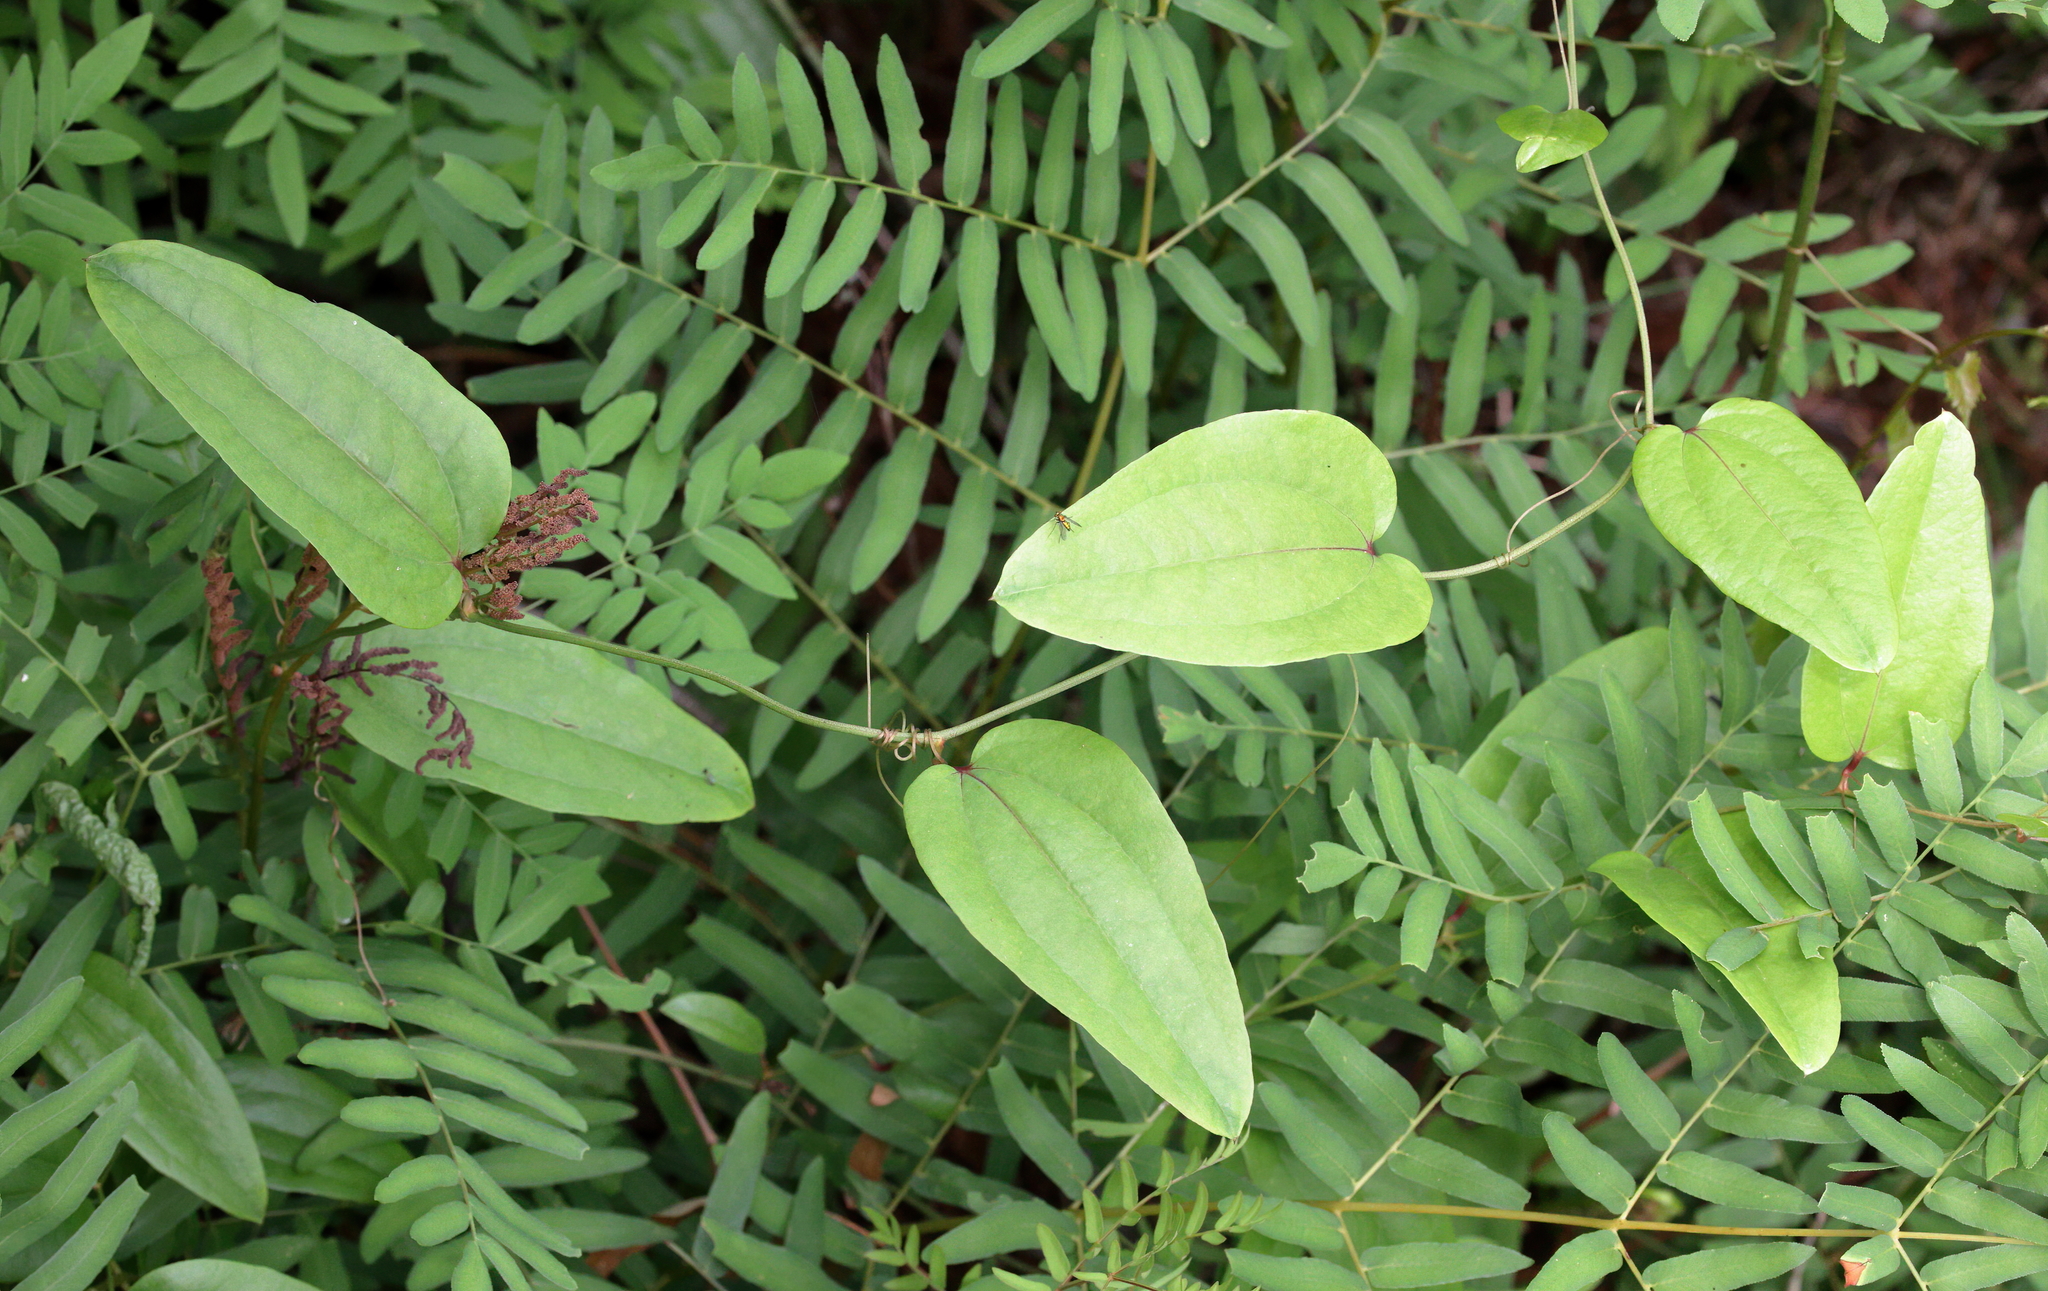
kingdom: Plantae
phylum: Tracheophyta
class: Liliopsida
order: Liliales
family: Smilacaceae
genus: Smilax
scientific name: Smilax walteri
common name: Coral greenbrier
